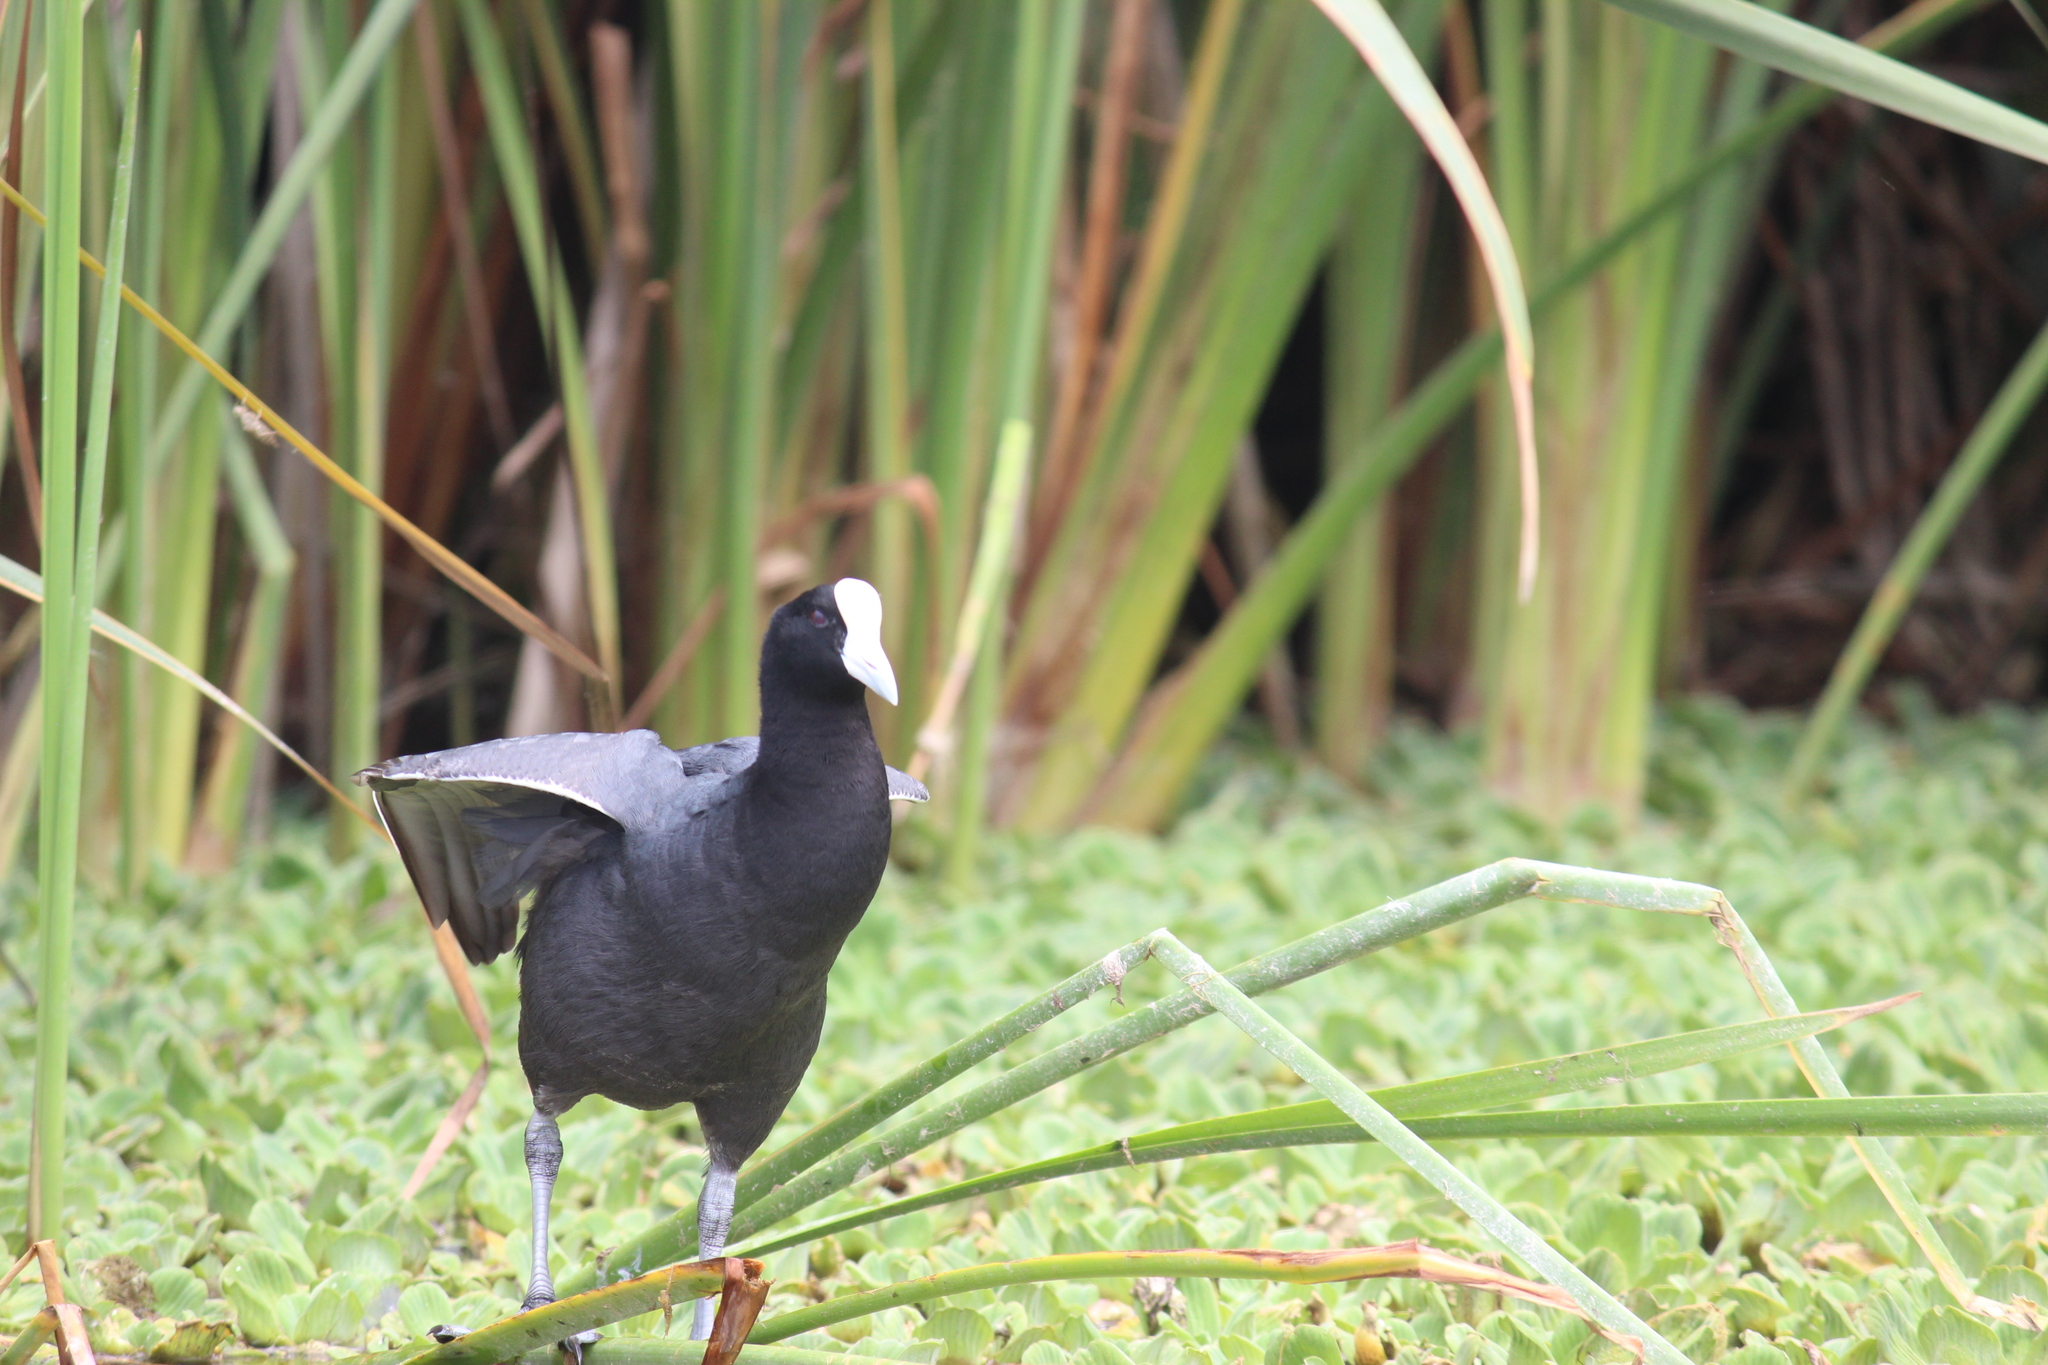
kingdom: Animalia
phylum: Chordata
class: Aves
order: Gruiformes
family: Rallidae
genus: Fulica
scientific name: Fulica ardesiaca
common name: Andean coot
